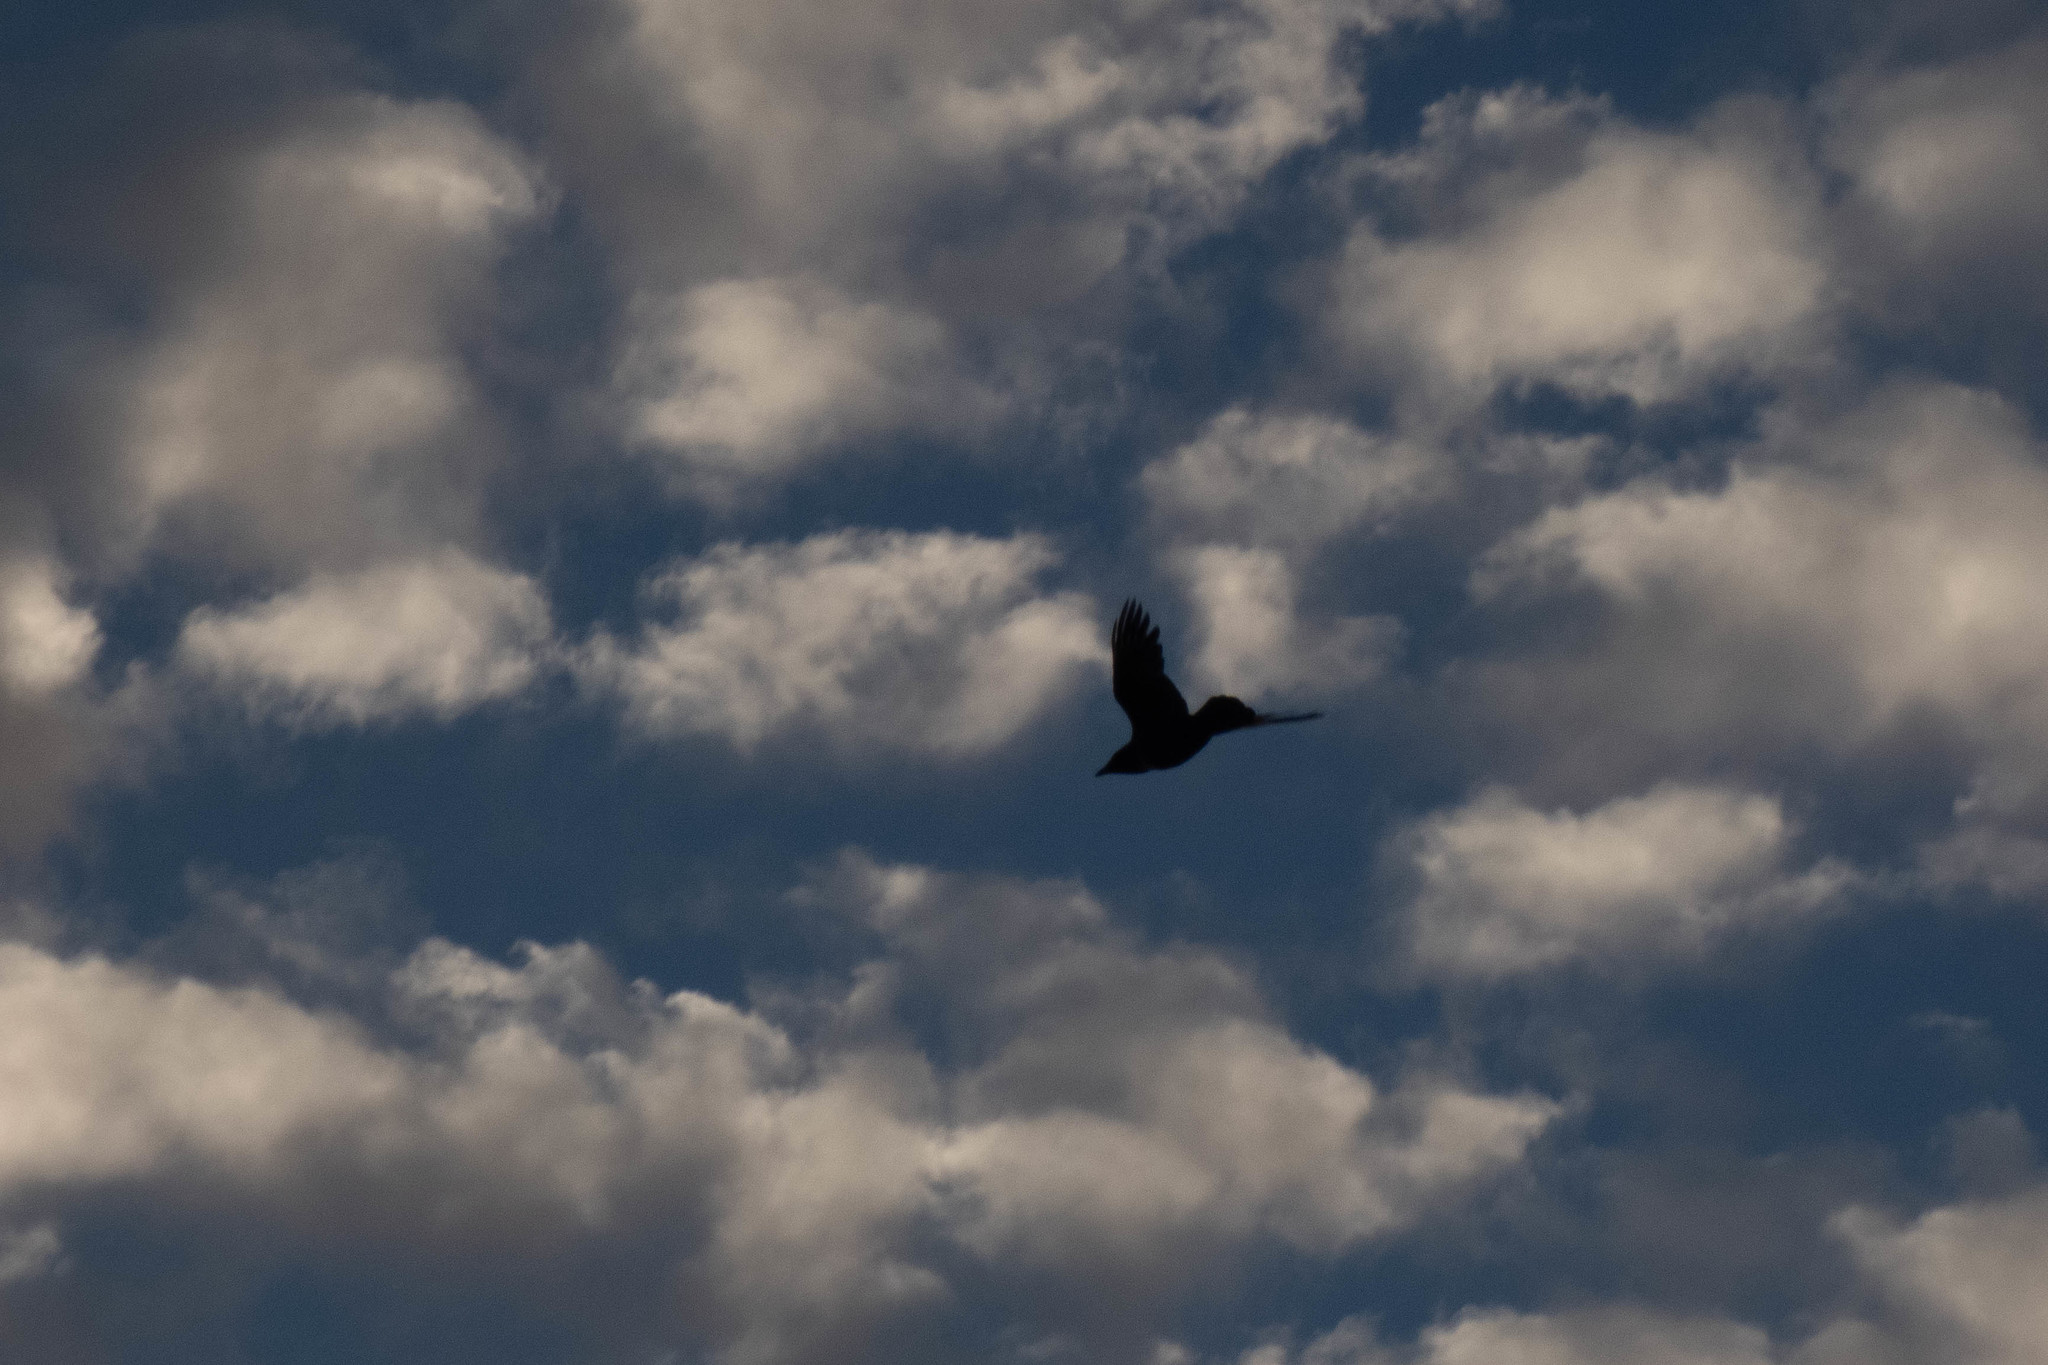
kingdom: Animalia
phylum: Chordata
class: Aves
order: Passeriformes
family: Corvidae
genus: Corvus
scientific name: Corvus brachyrhynchos
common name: American crow
